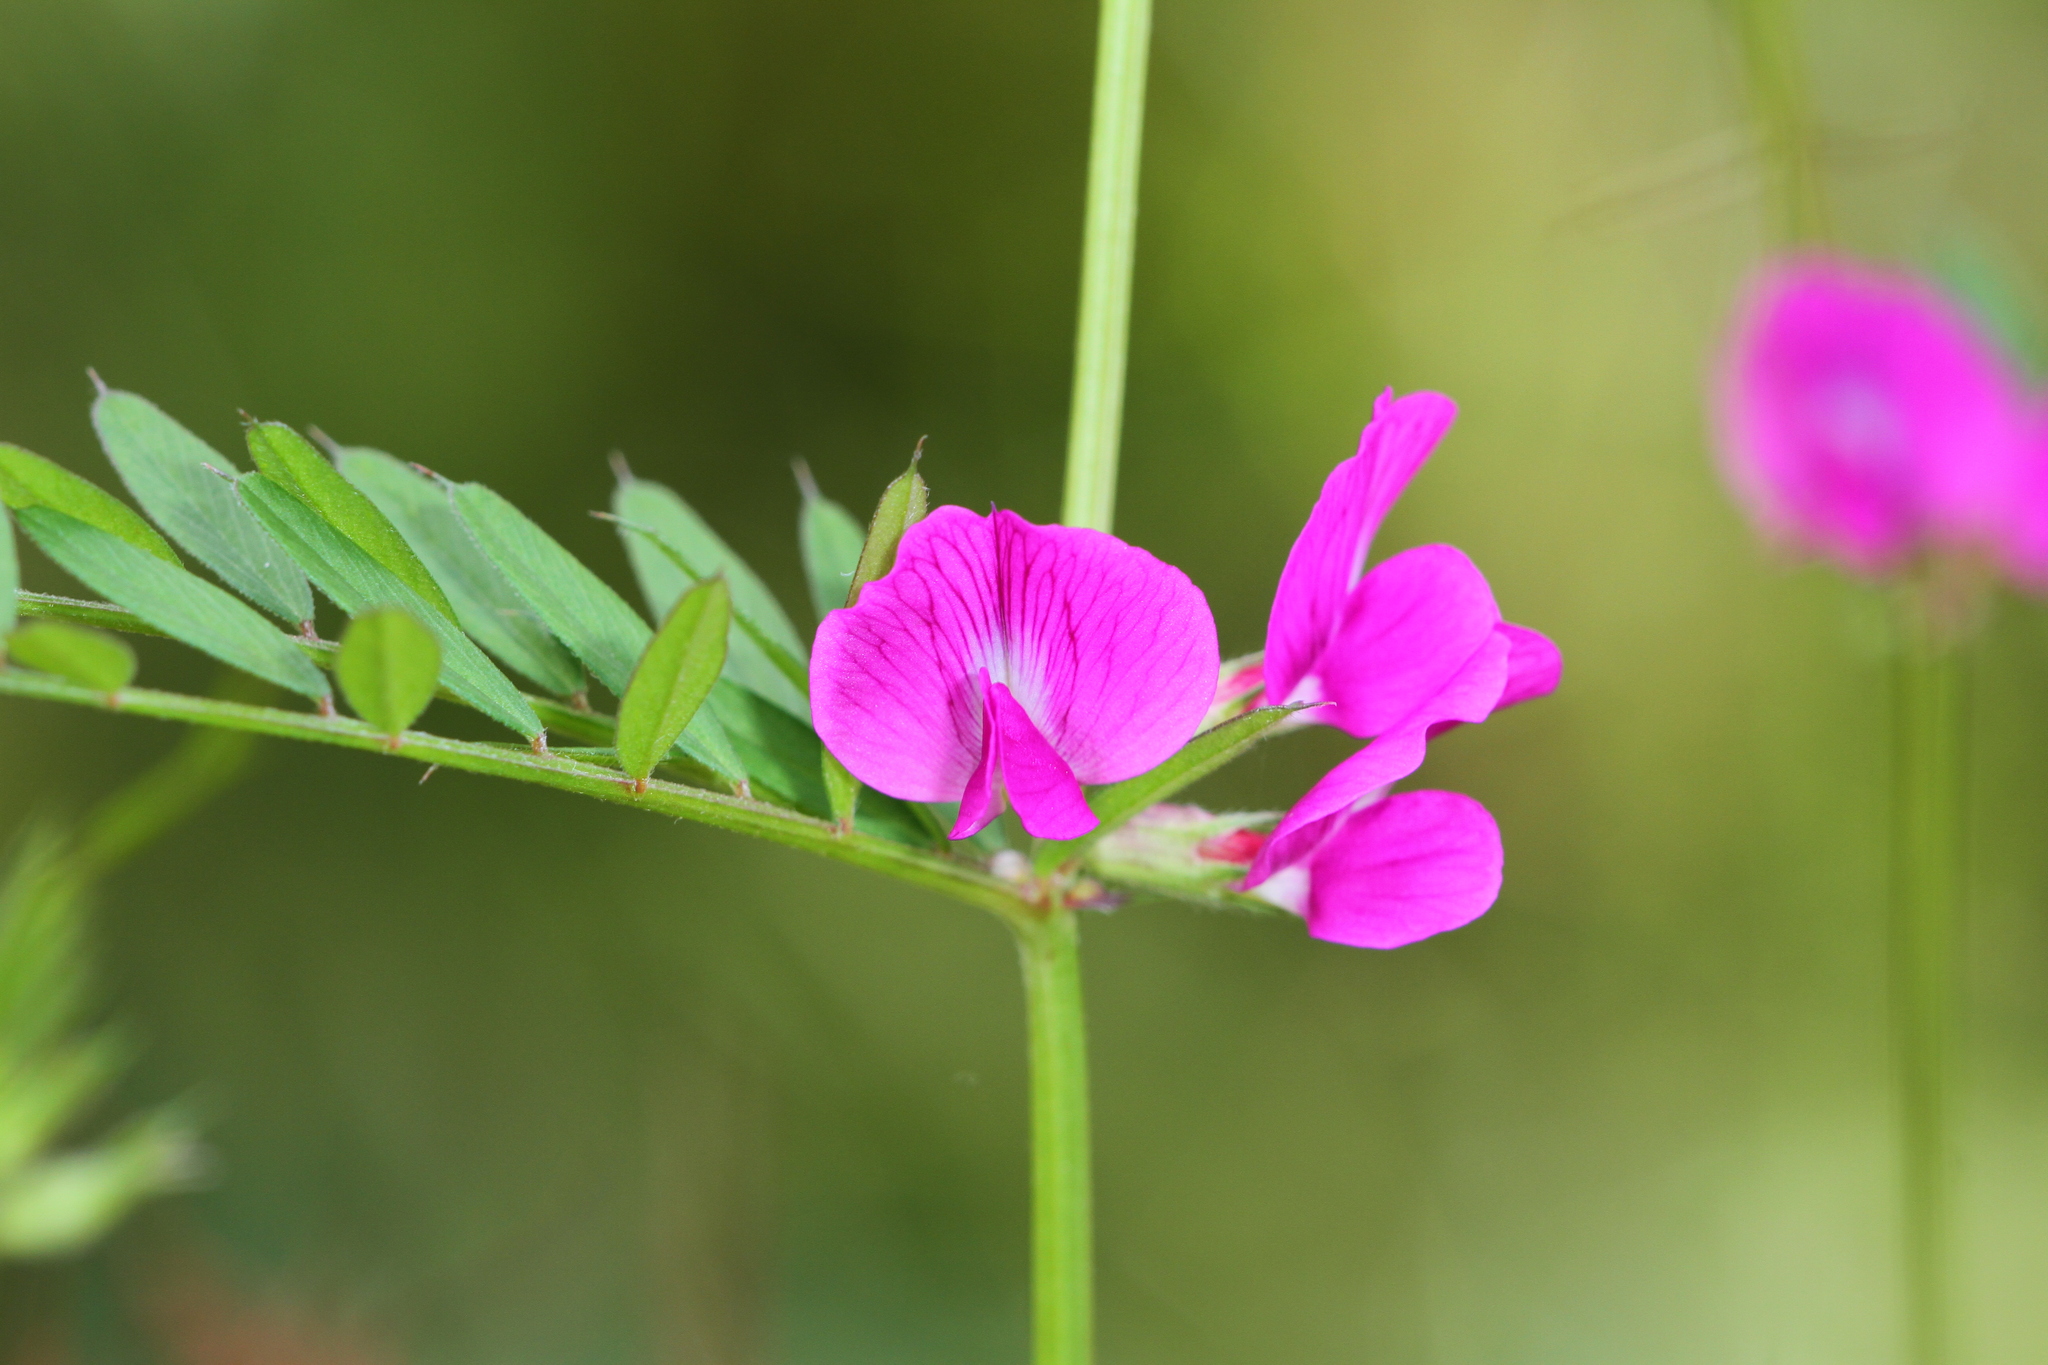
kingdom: Plantae
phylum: Tracheophyta
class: Magnoliopsida
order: Fabales
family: Fabaceae
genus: Vicia
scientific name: Vicia sativa
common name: Garden vetch
